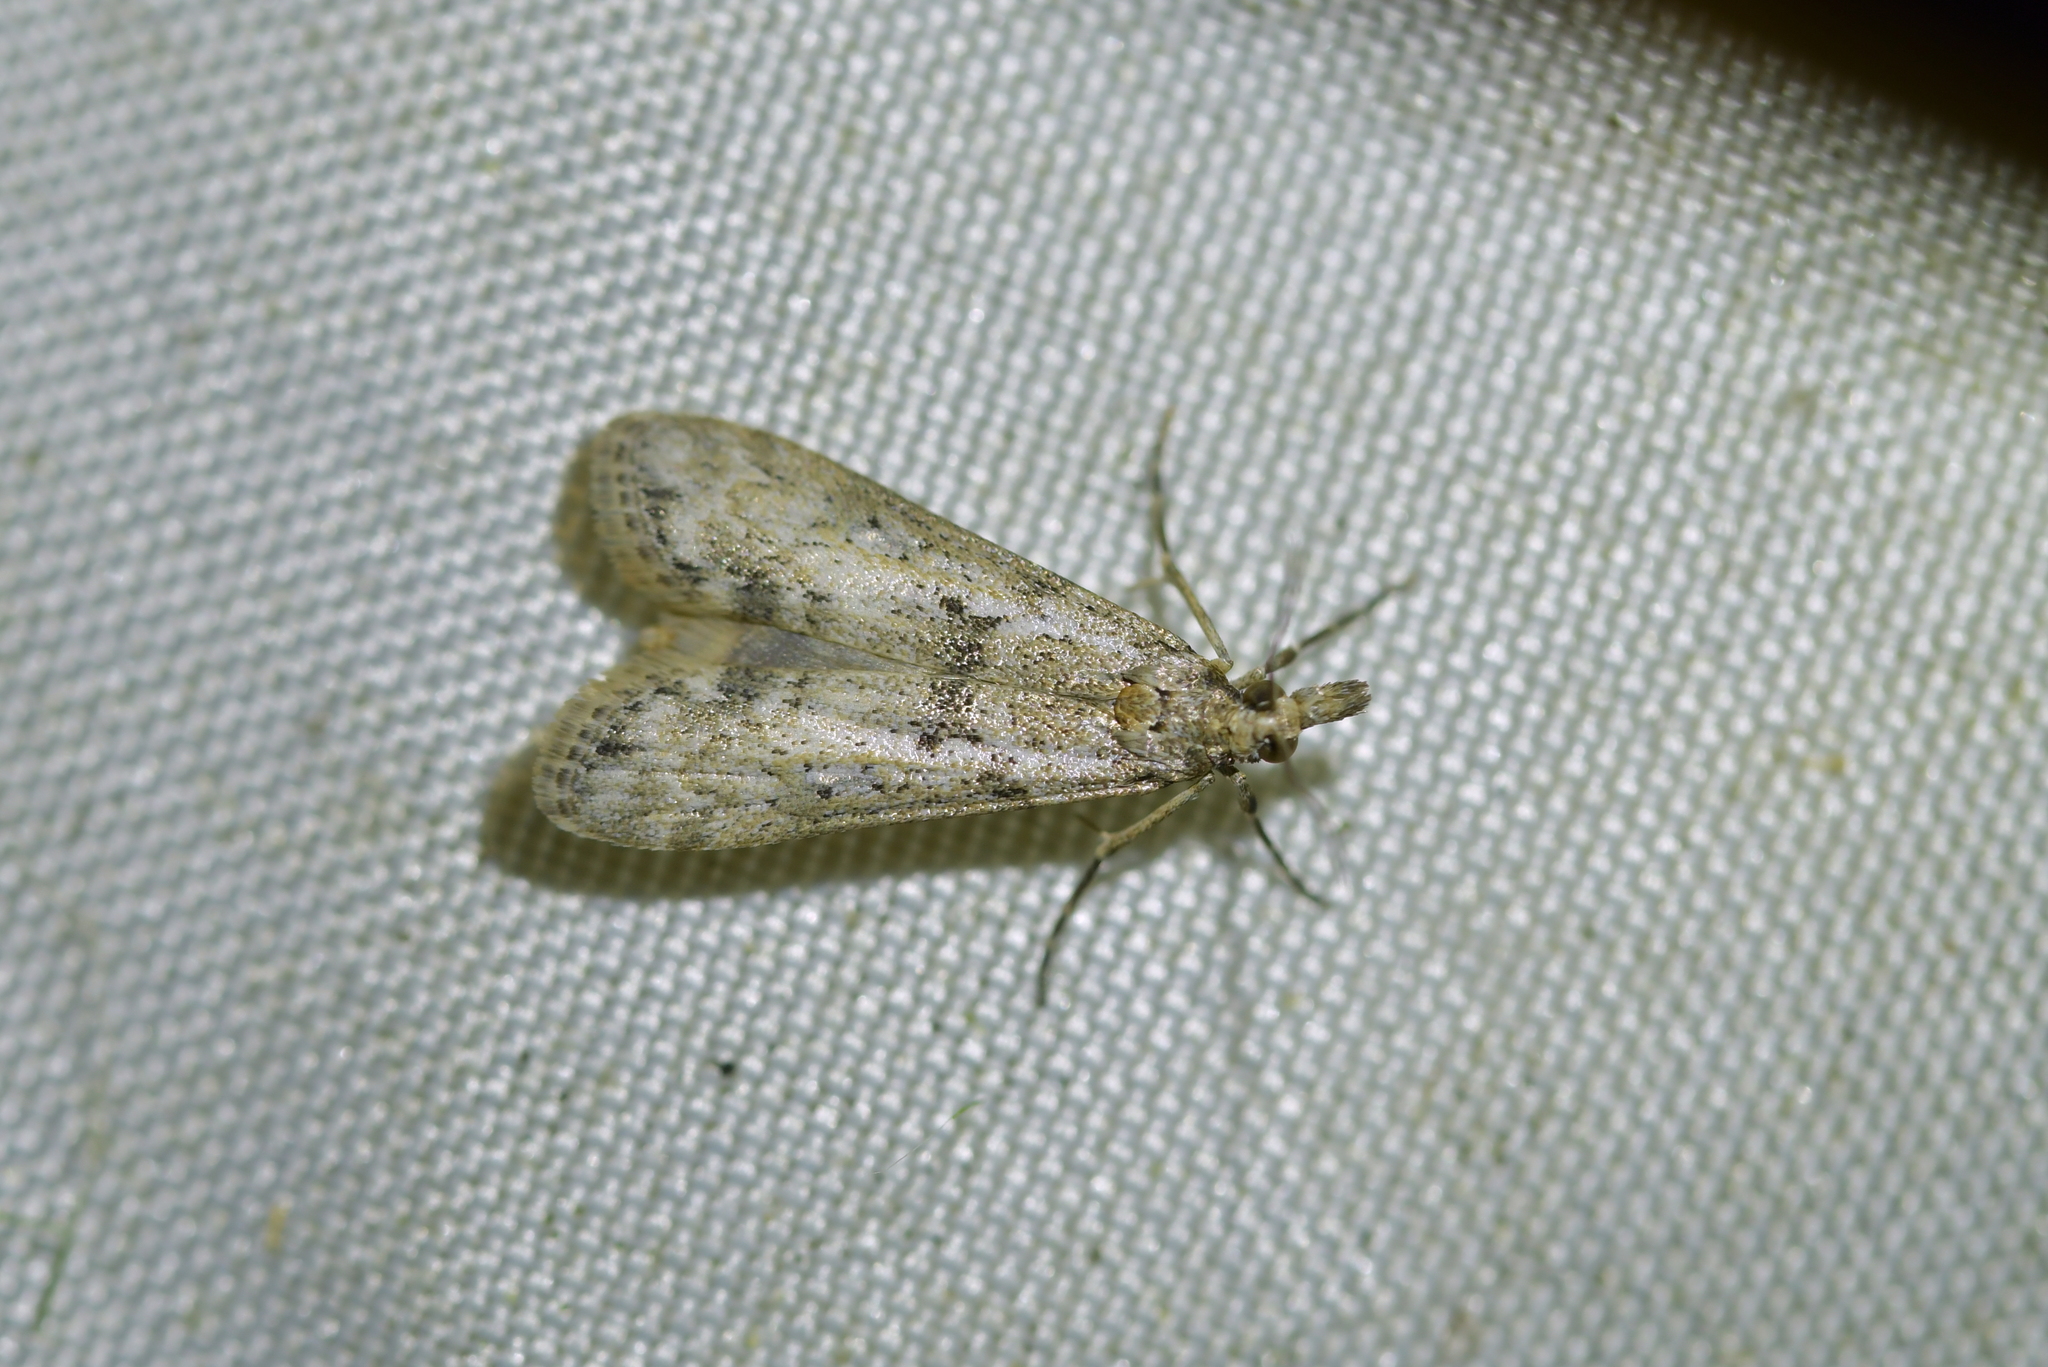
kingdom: Animalia
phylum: Arthropoda
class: Insecta
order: Lepidoptera
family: Crambidae
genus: Eudonia
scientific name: Eudonia leptalea
